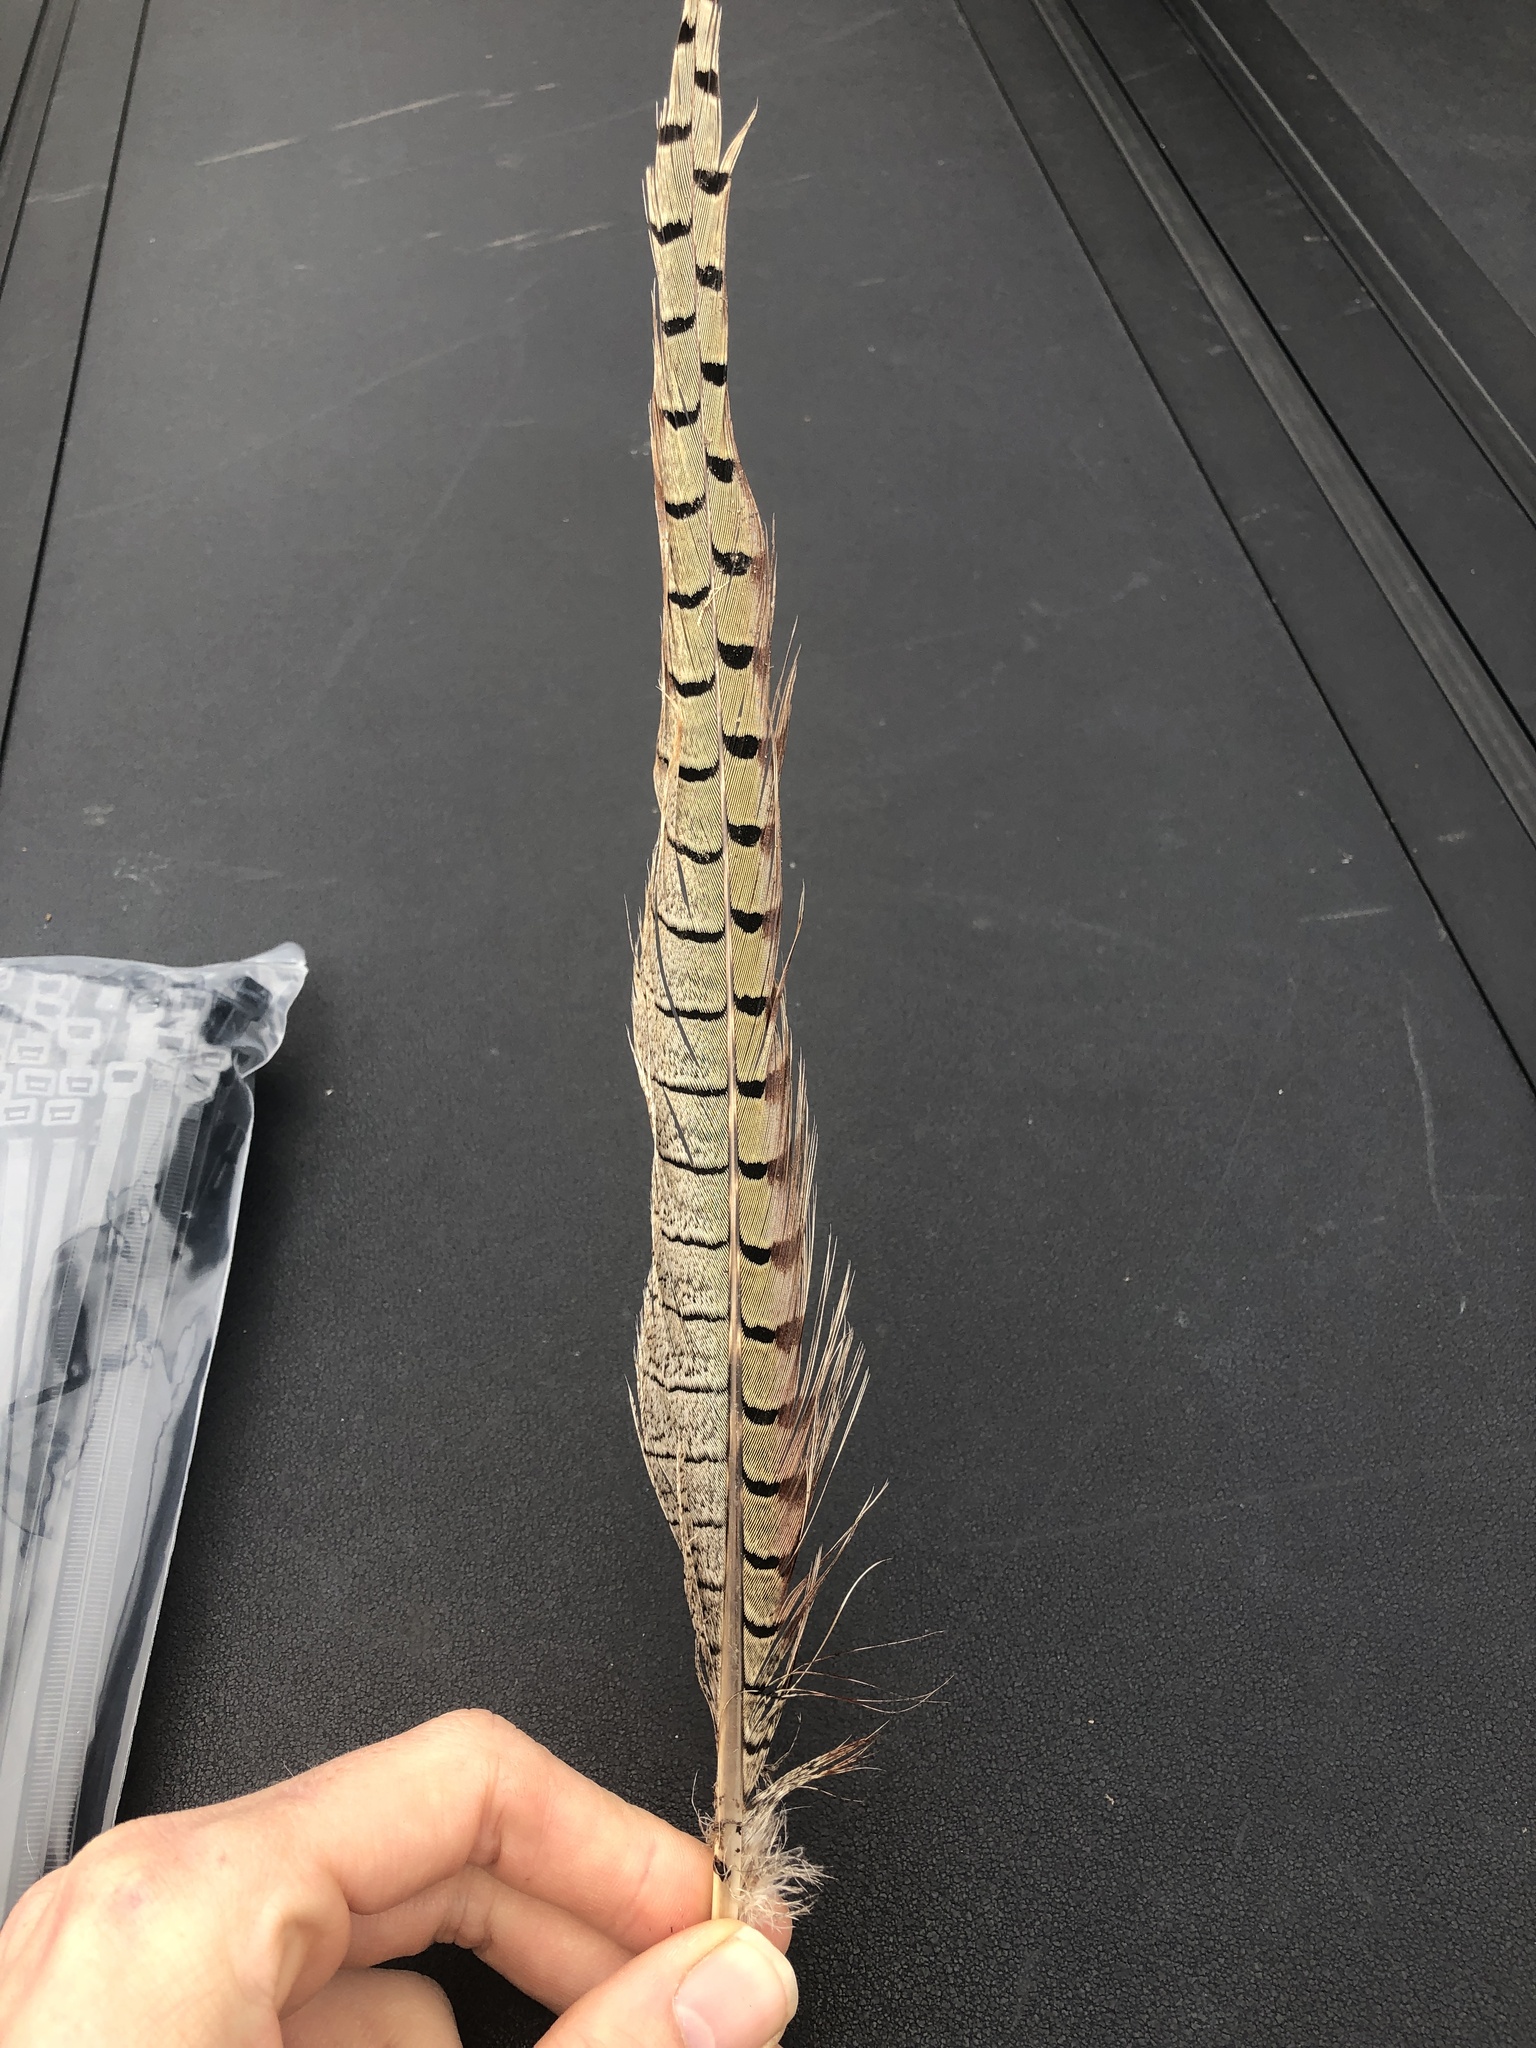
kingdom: Animalia
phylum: Chordata
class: Aves
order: Galliformes
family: Phasianidae
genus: Phasianus
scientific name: Phasianus colchicus
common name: Common pheasant
